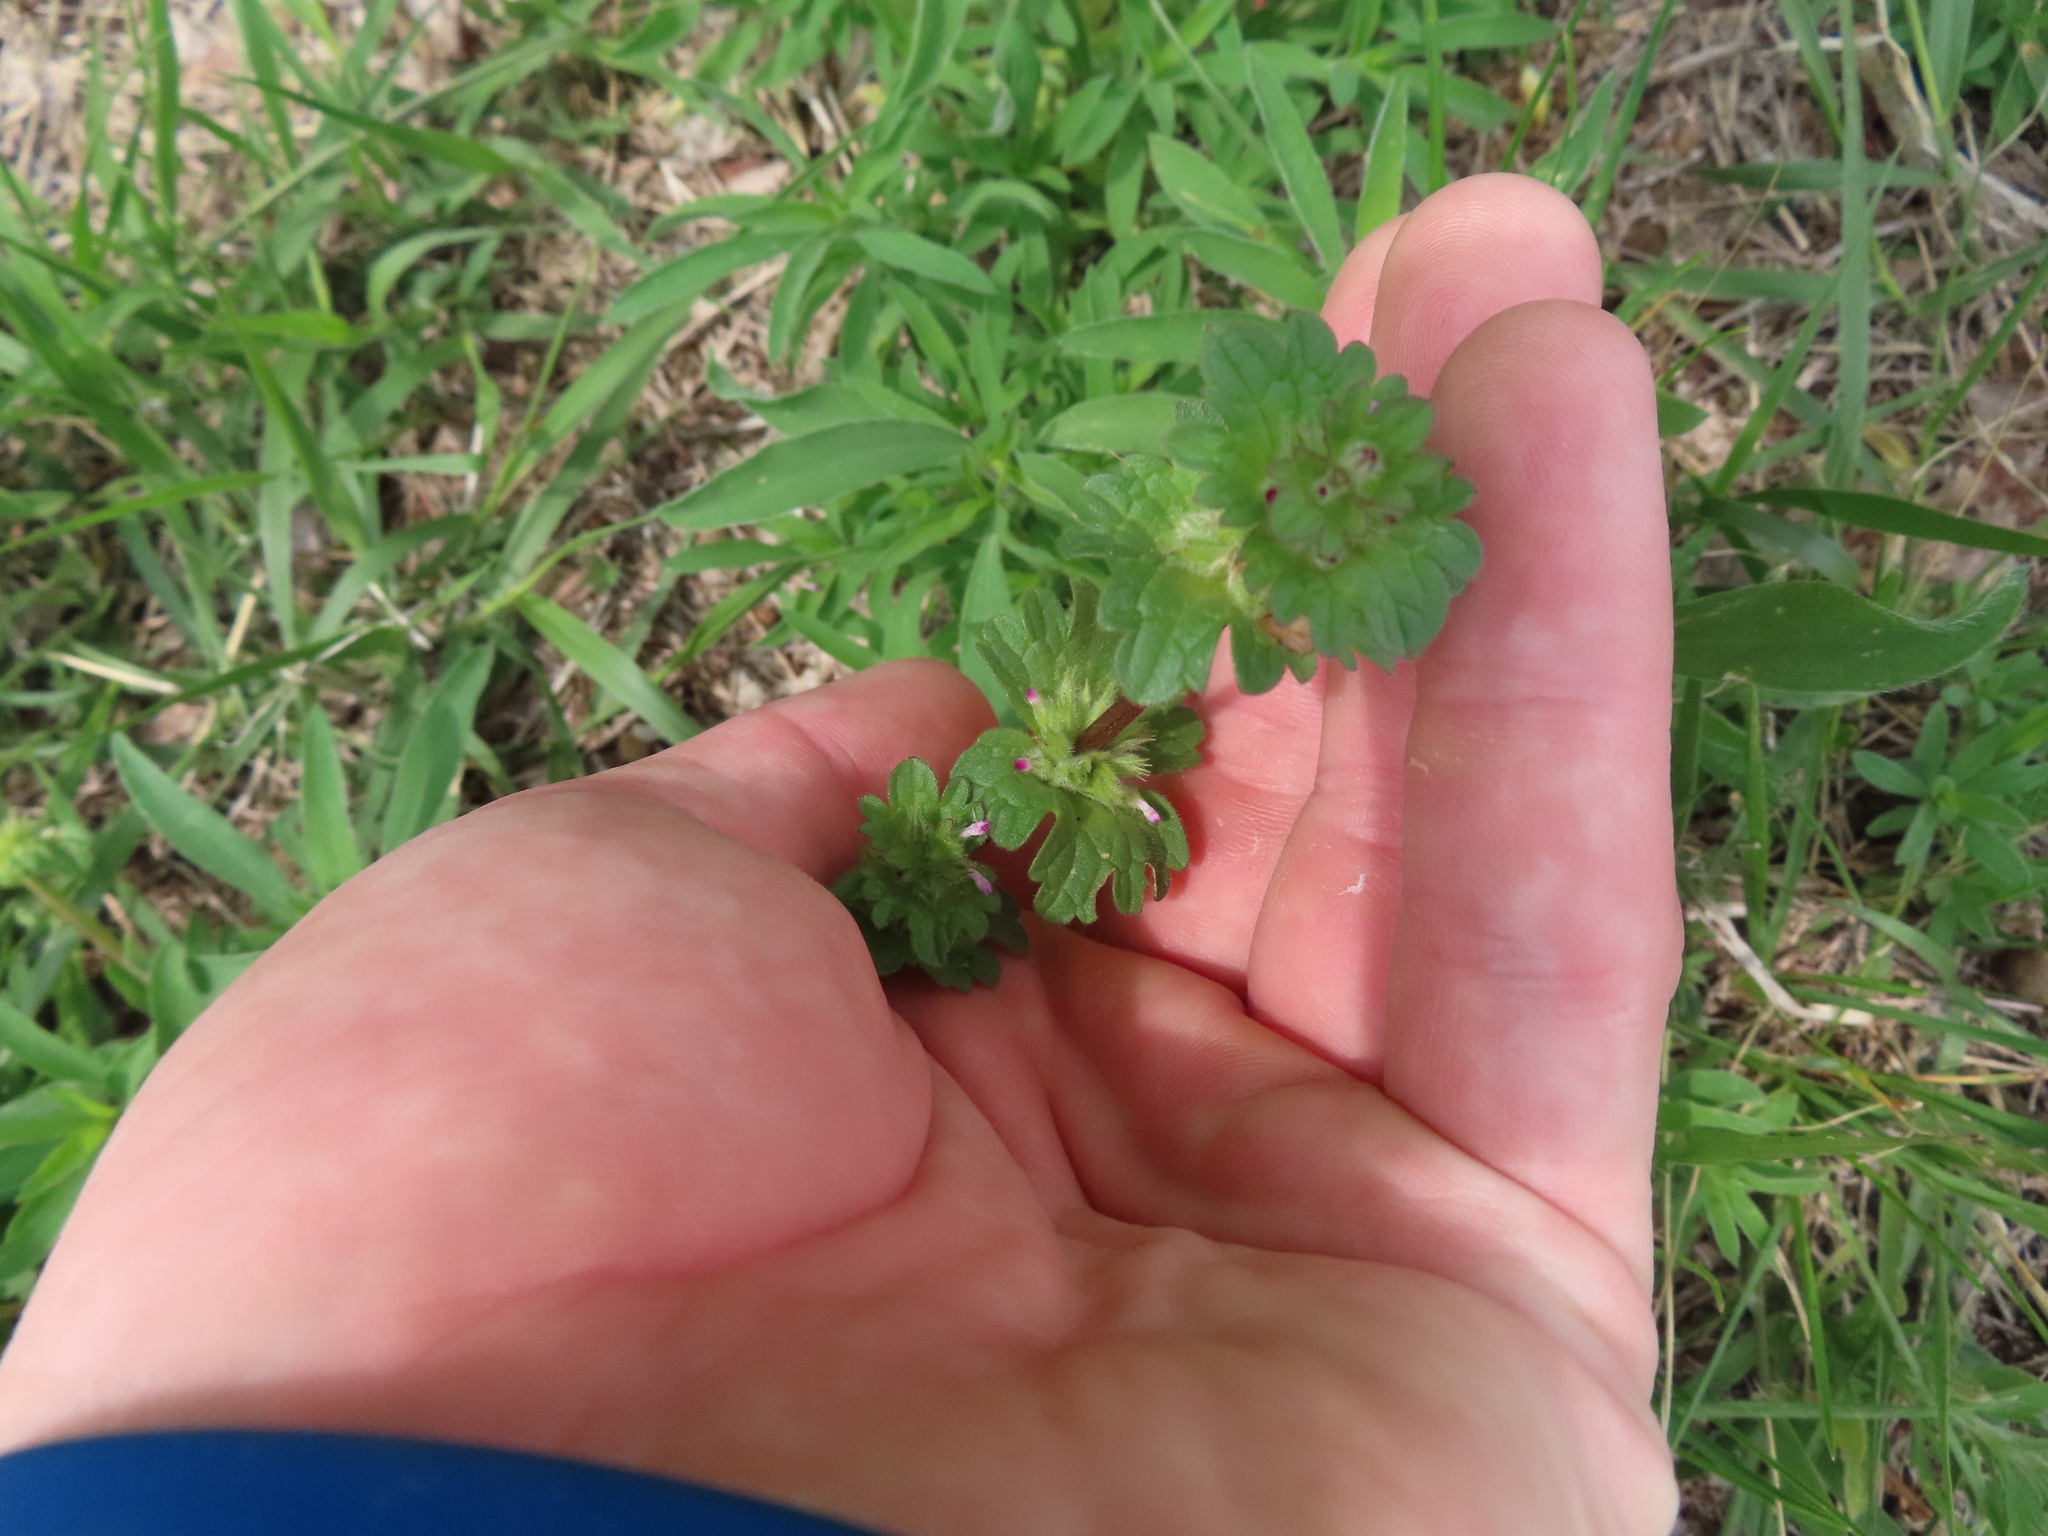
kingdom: Plantae
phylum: Tracheophyta
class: Magnoliopsida
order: Lamiales
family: Lamiaceae
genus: Lamium
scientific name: Lamium amplexicaule
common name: Henbit dead-nettle
